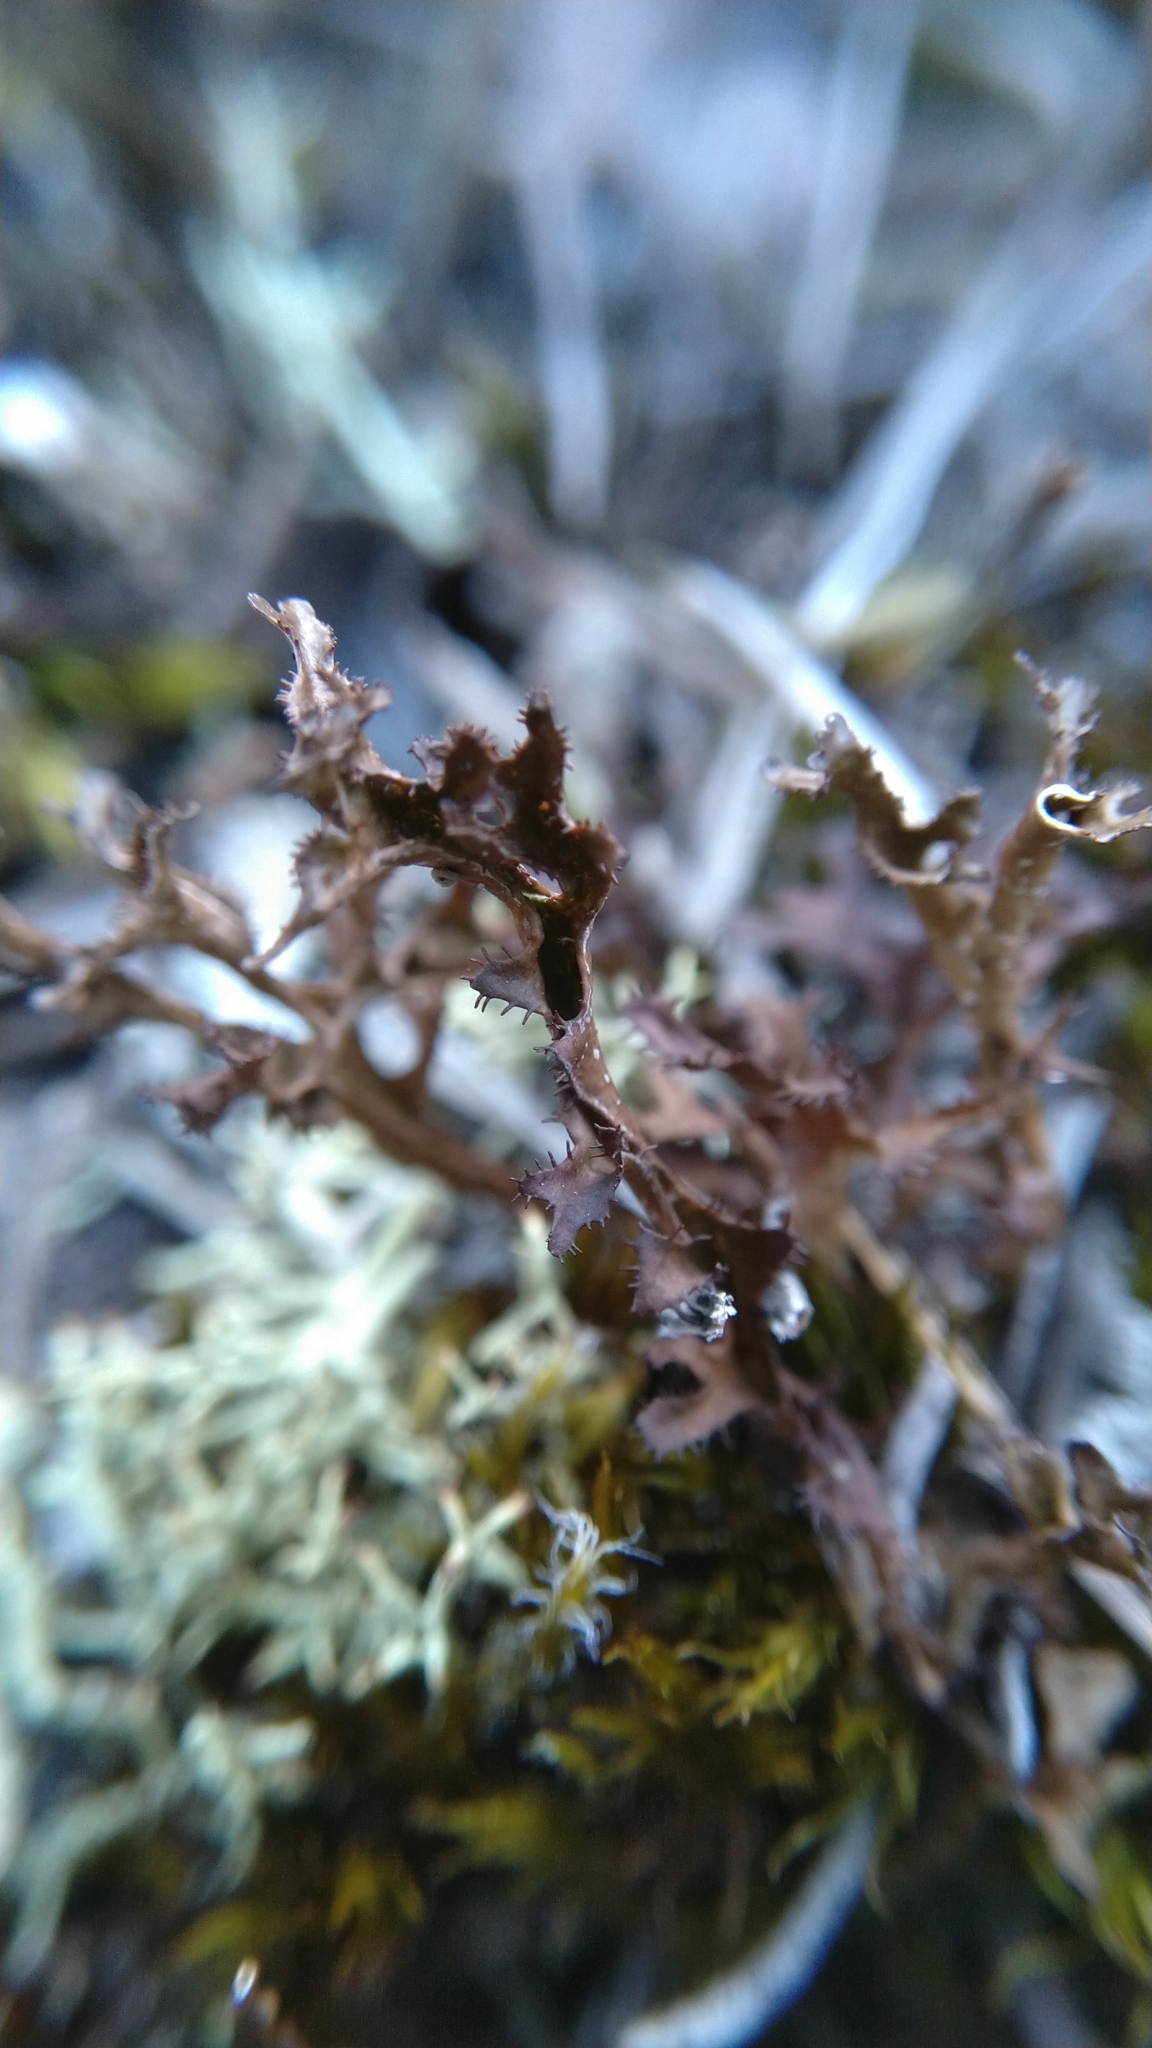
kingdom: Fungi
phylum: Ascomycota
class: Lecanoromycetes
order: Lecanorales
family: Parmeliaceae
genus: Cetraria
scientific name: Cetraria crispiformis
